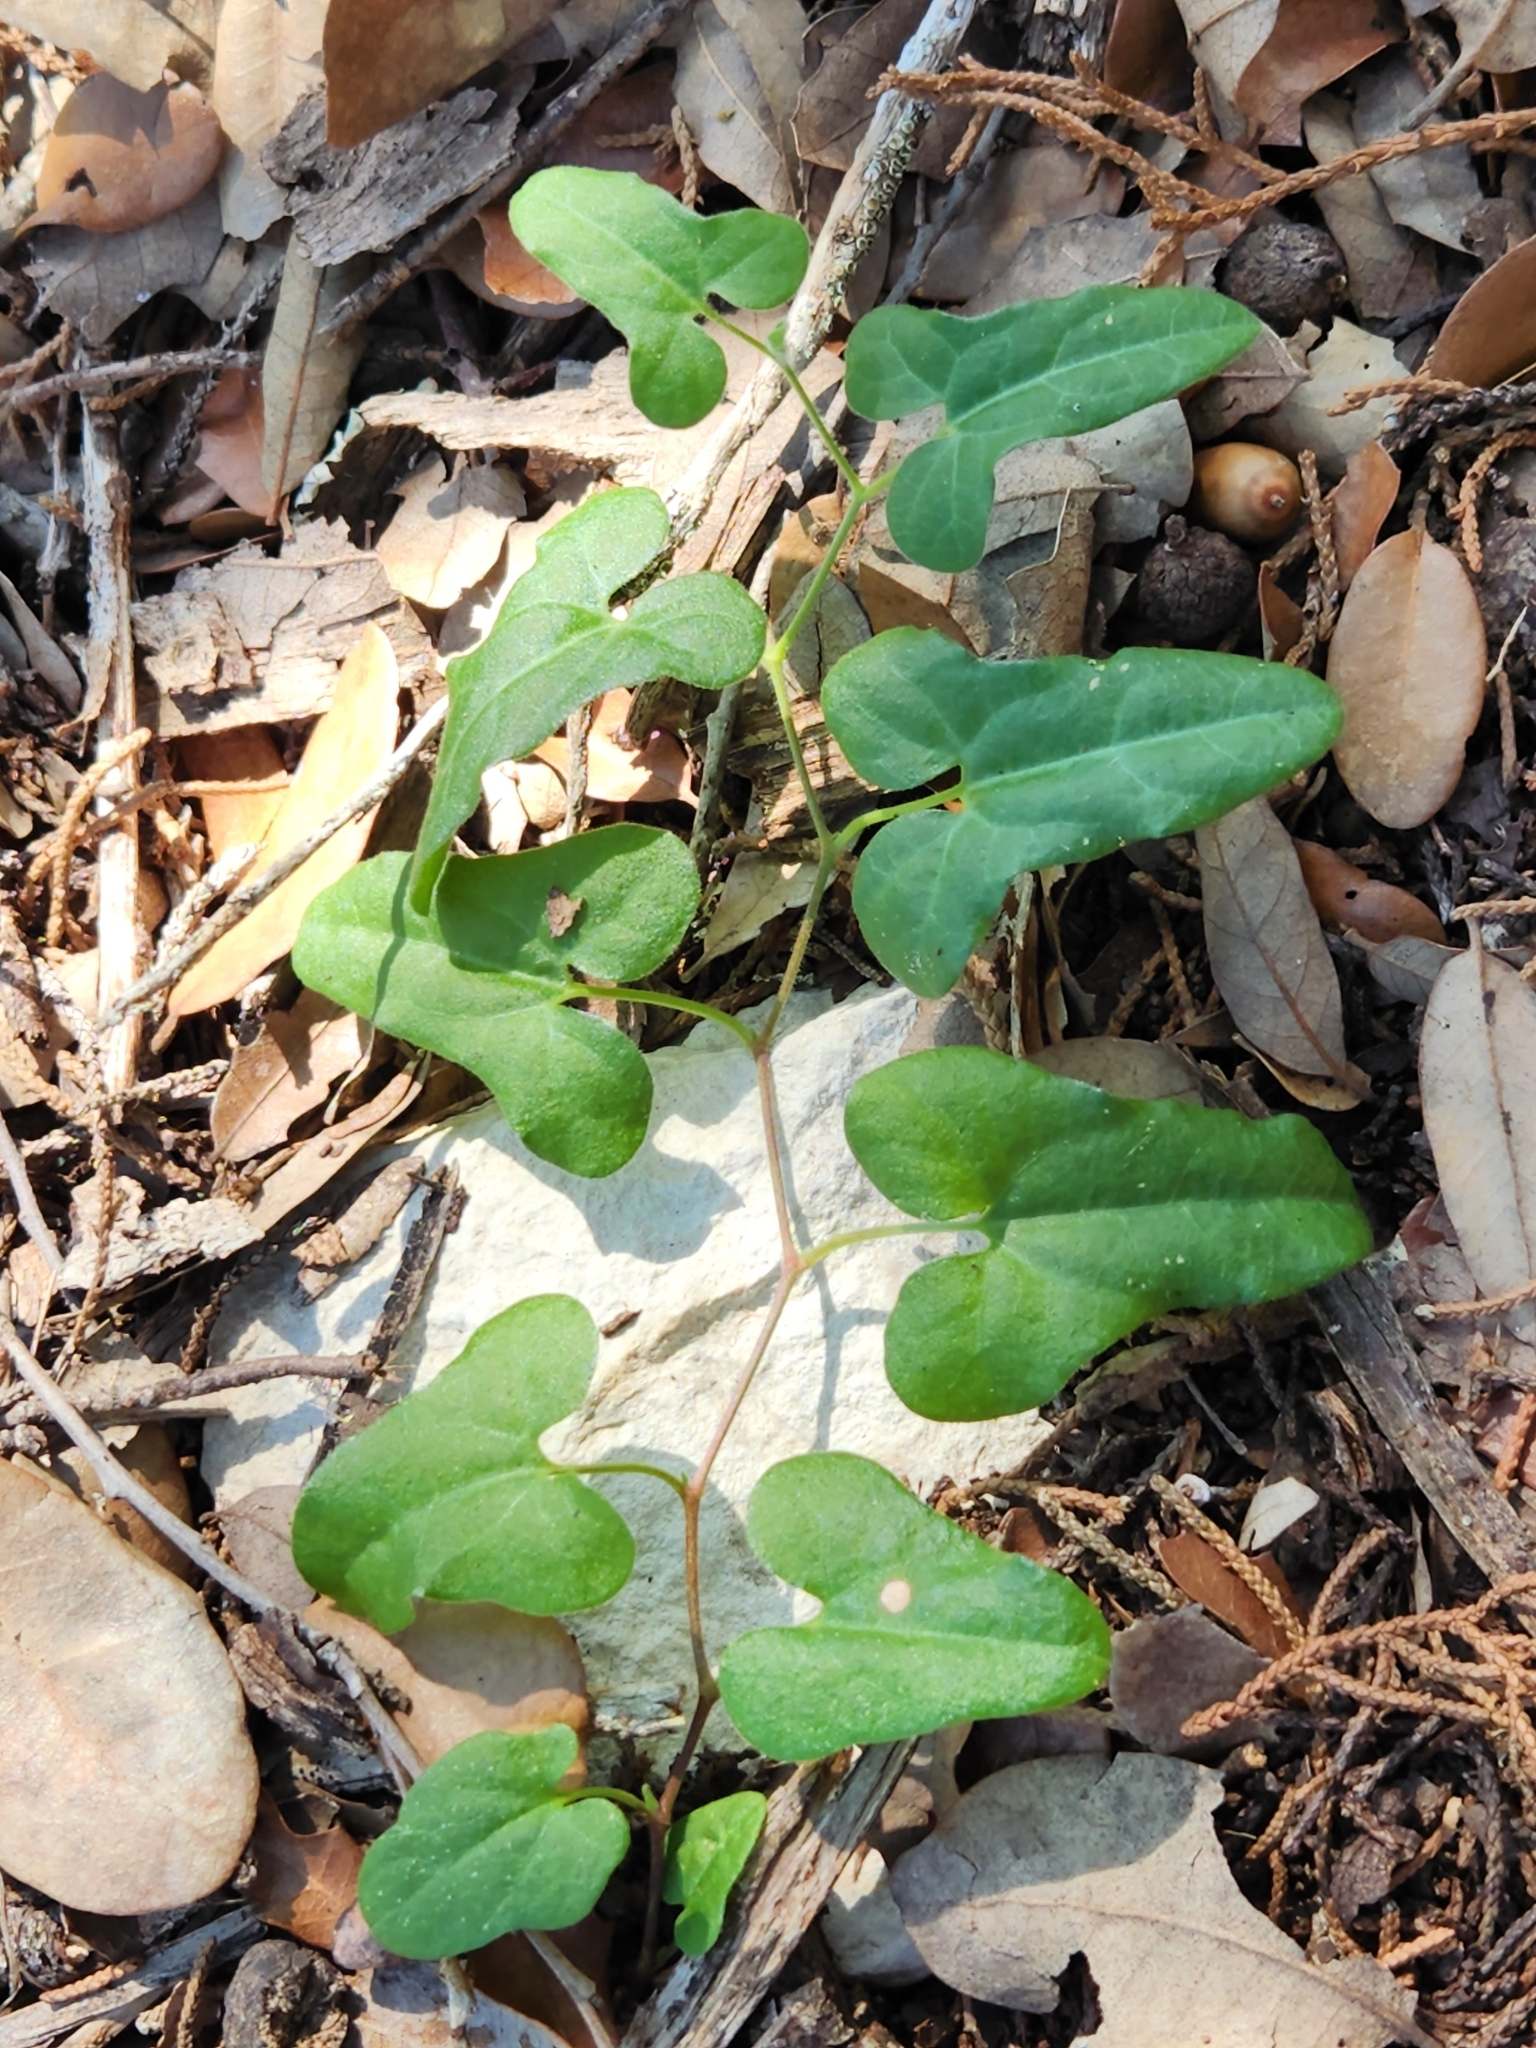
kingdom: Plantae
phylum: Tracheophyta
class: Magnoliopsida
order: Piperales
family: Aristolochiaceae
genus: Aristolochia
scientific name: Aristolochia coryi
